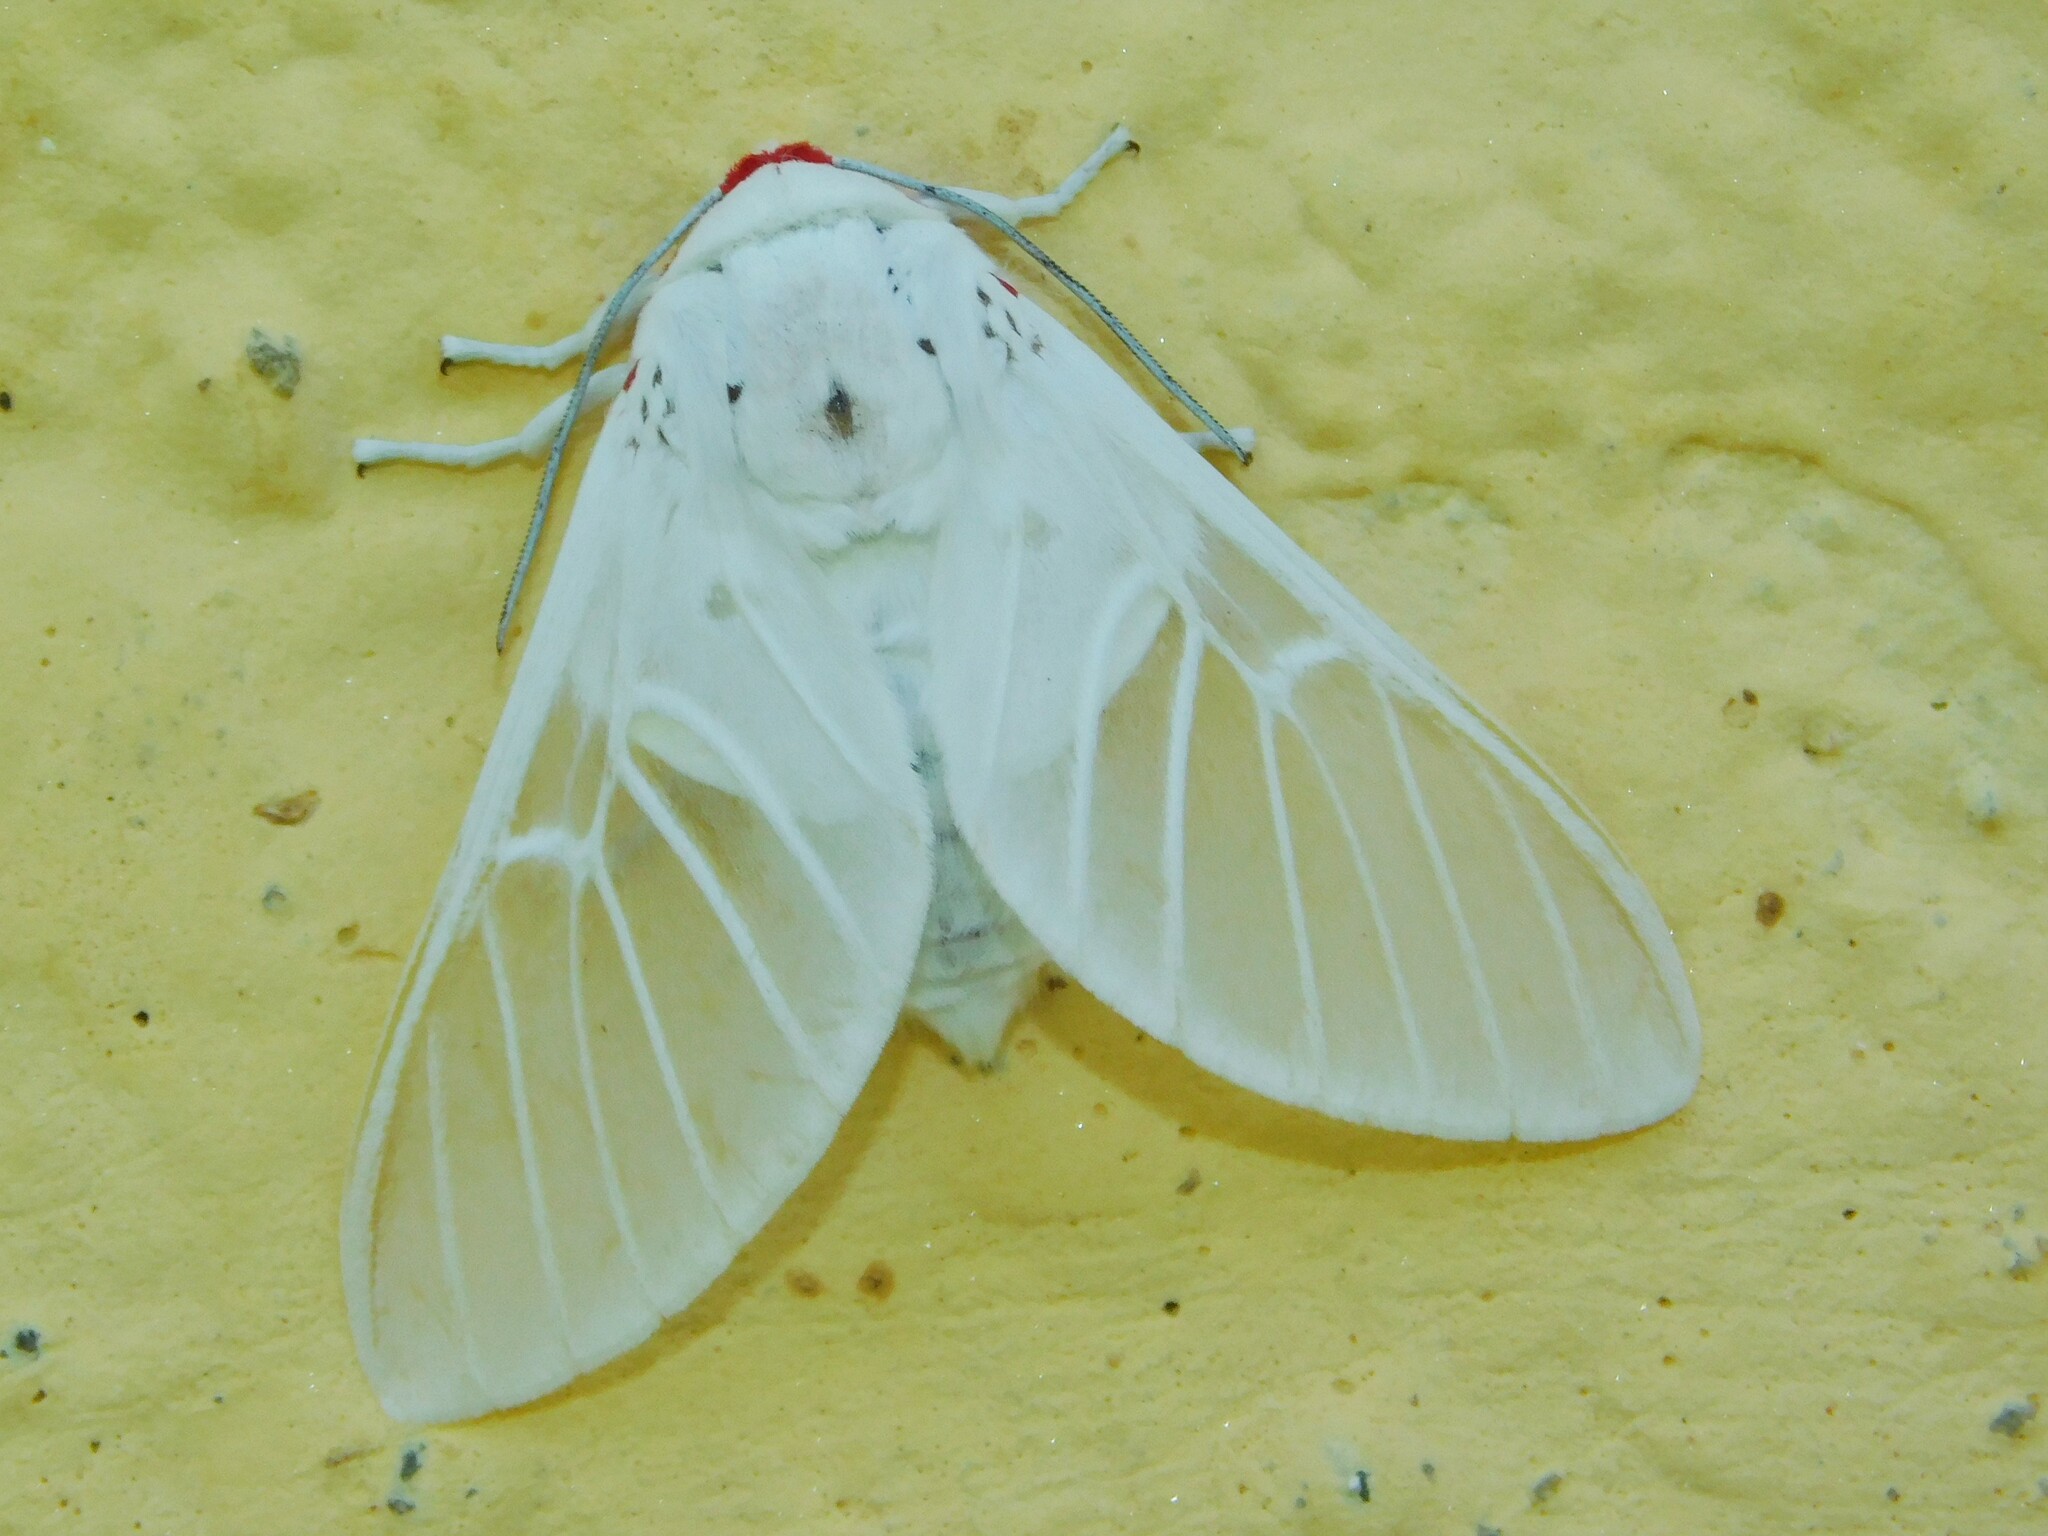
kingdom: Animalia
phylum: Arthropoda
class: Insecta
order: Lepidoptera
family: Erebidae
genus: Balacra
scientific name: Balacra pulchra
